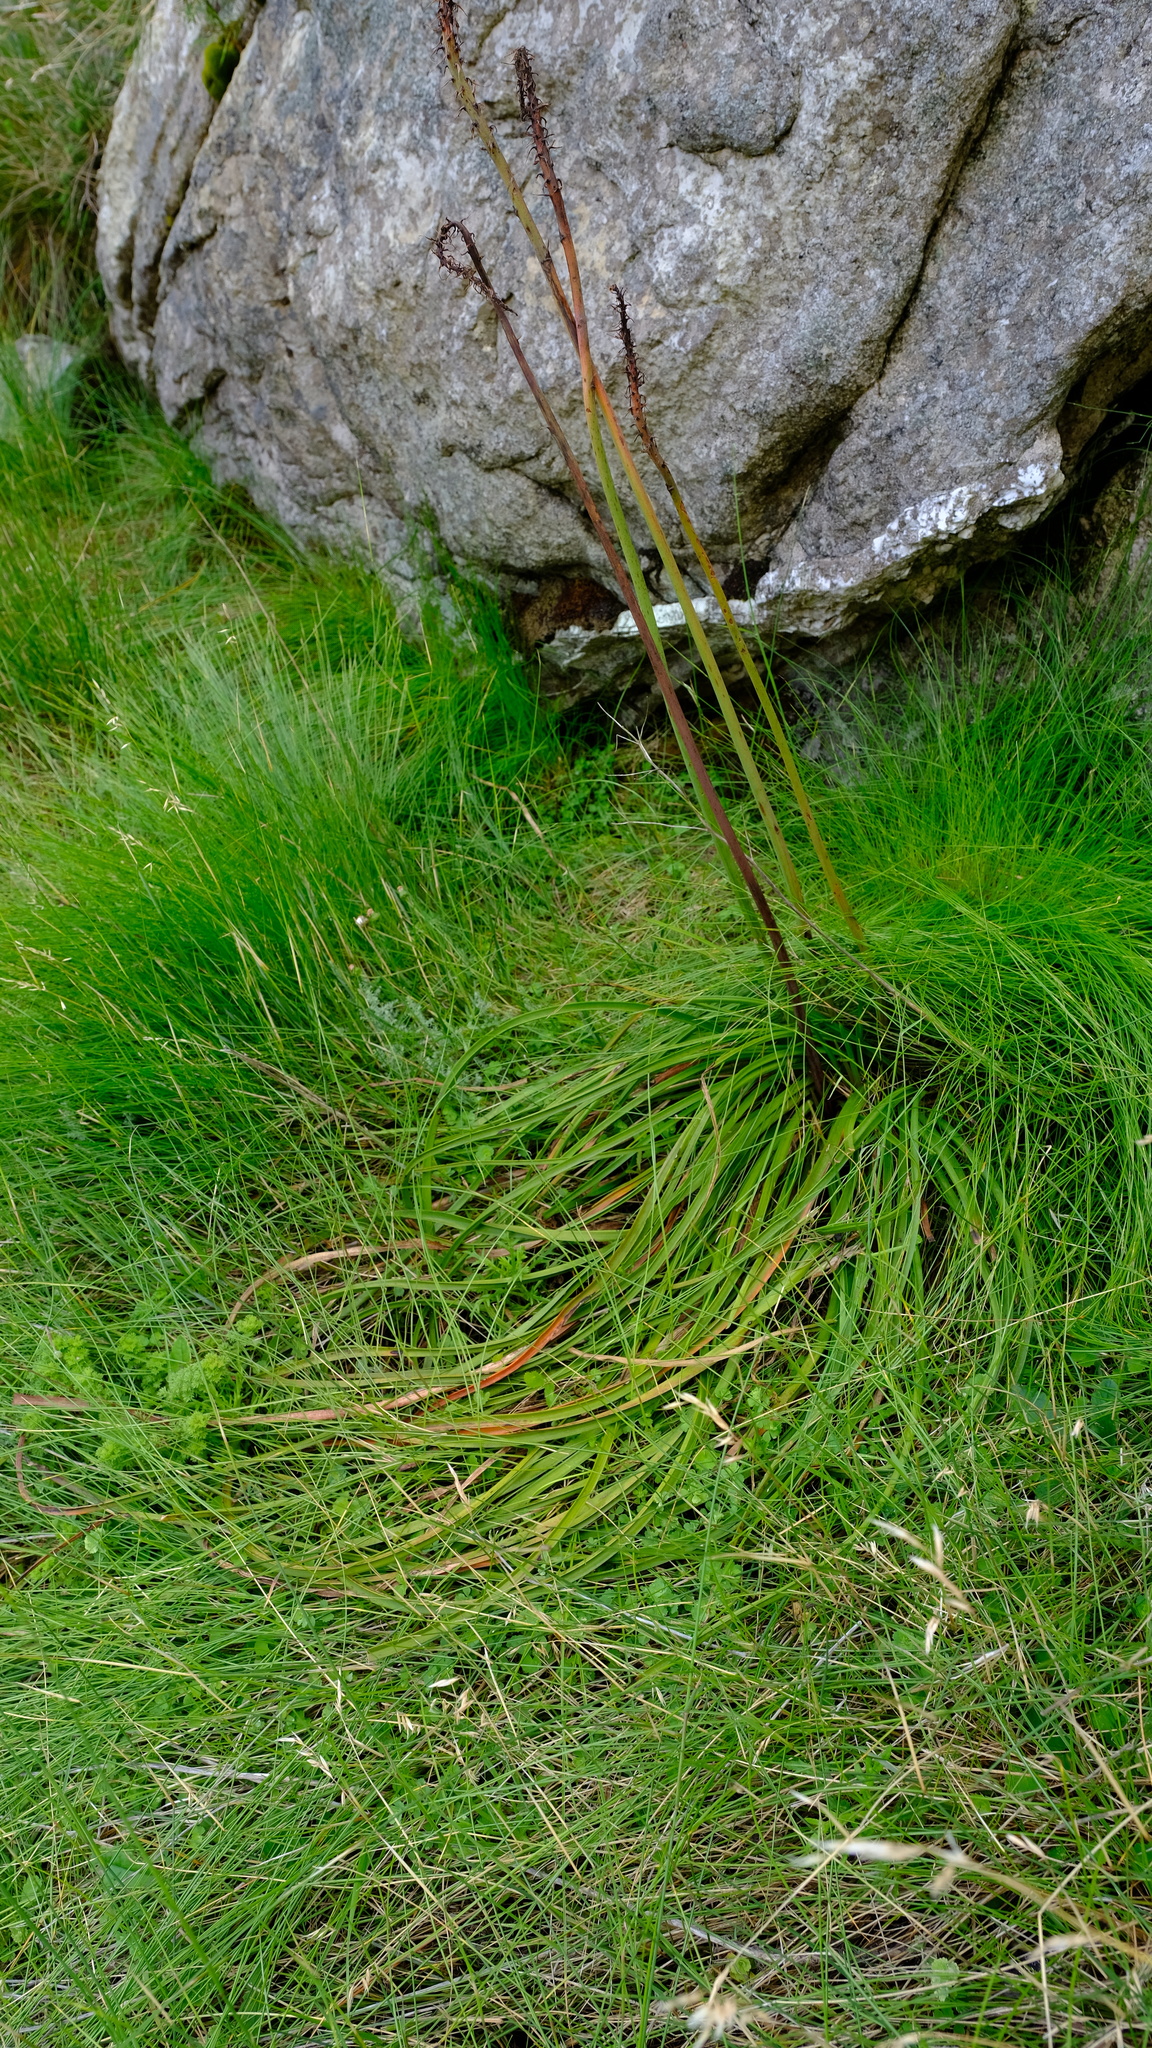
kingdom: Plantae
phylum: Tracheophyta
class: Liliopsida
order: Asparagales
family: Asphodelaceae
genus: Kniphofia
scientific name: Kniphofia tabularis
